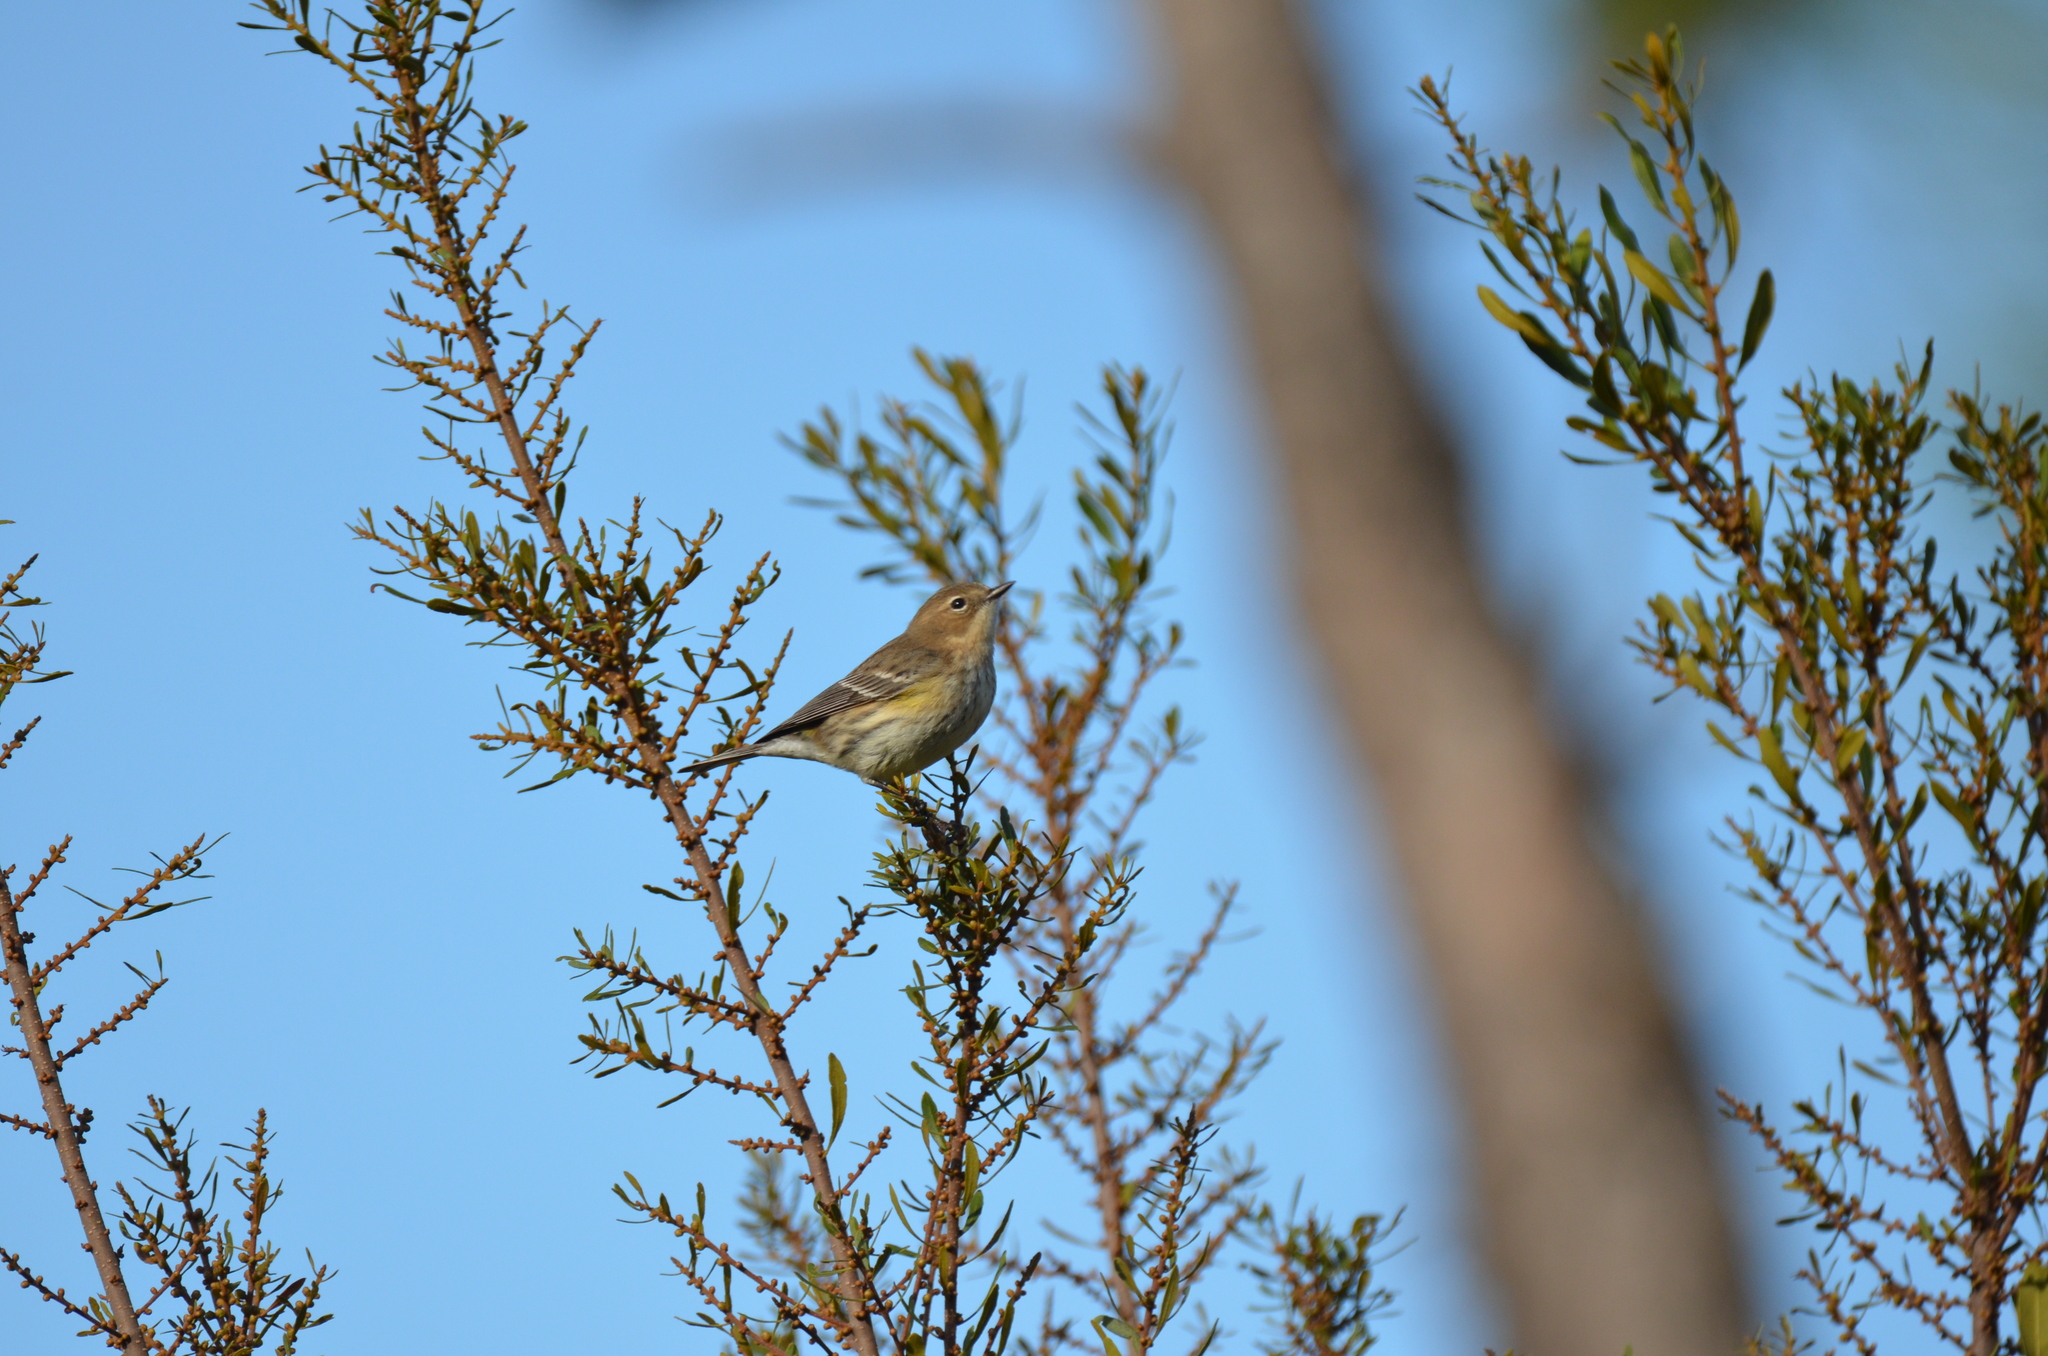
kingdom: Animalia
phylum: Chordata
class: Aves
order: Passeriformes
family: Parulidae
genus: Setophaga
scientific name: Setophaga coronata
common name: Myrtle warbler
